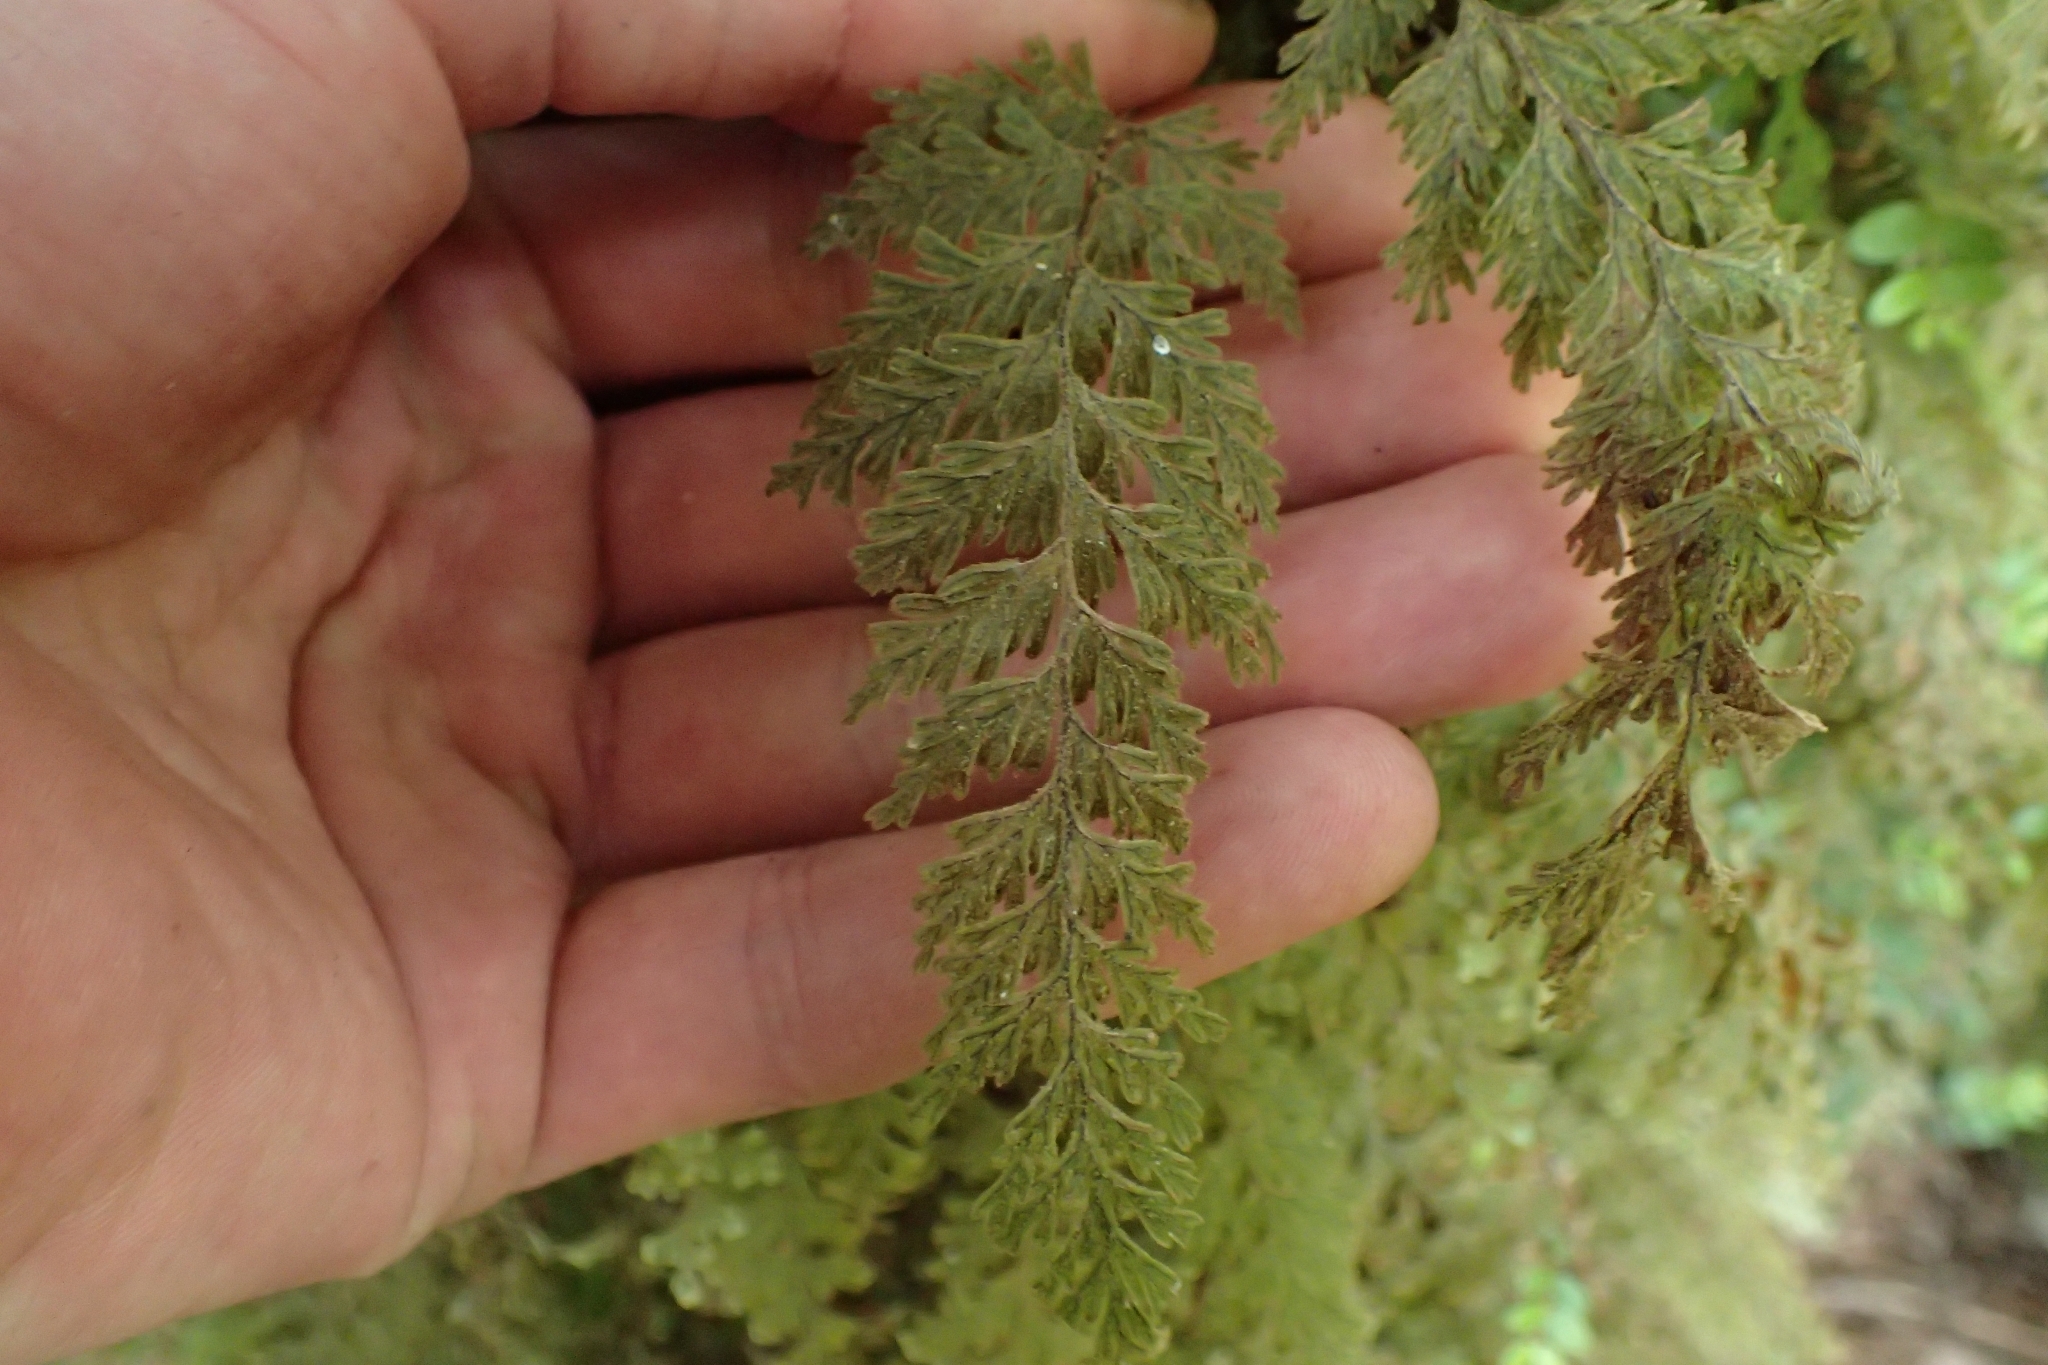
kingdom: Plantae
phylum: Tracheophyta
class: Polypodiopsida
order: Hymenophyllales
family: Hymenophyllaceae
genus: Hymenophyllum
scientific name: Hymenophyllum frankliniae
